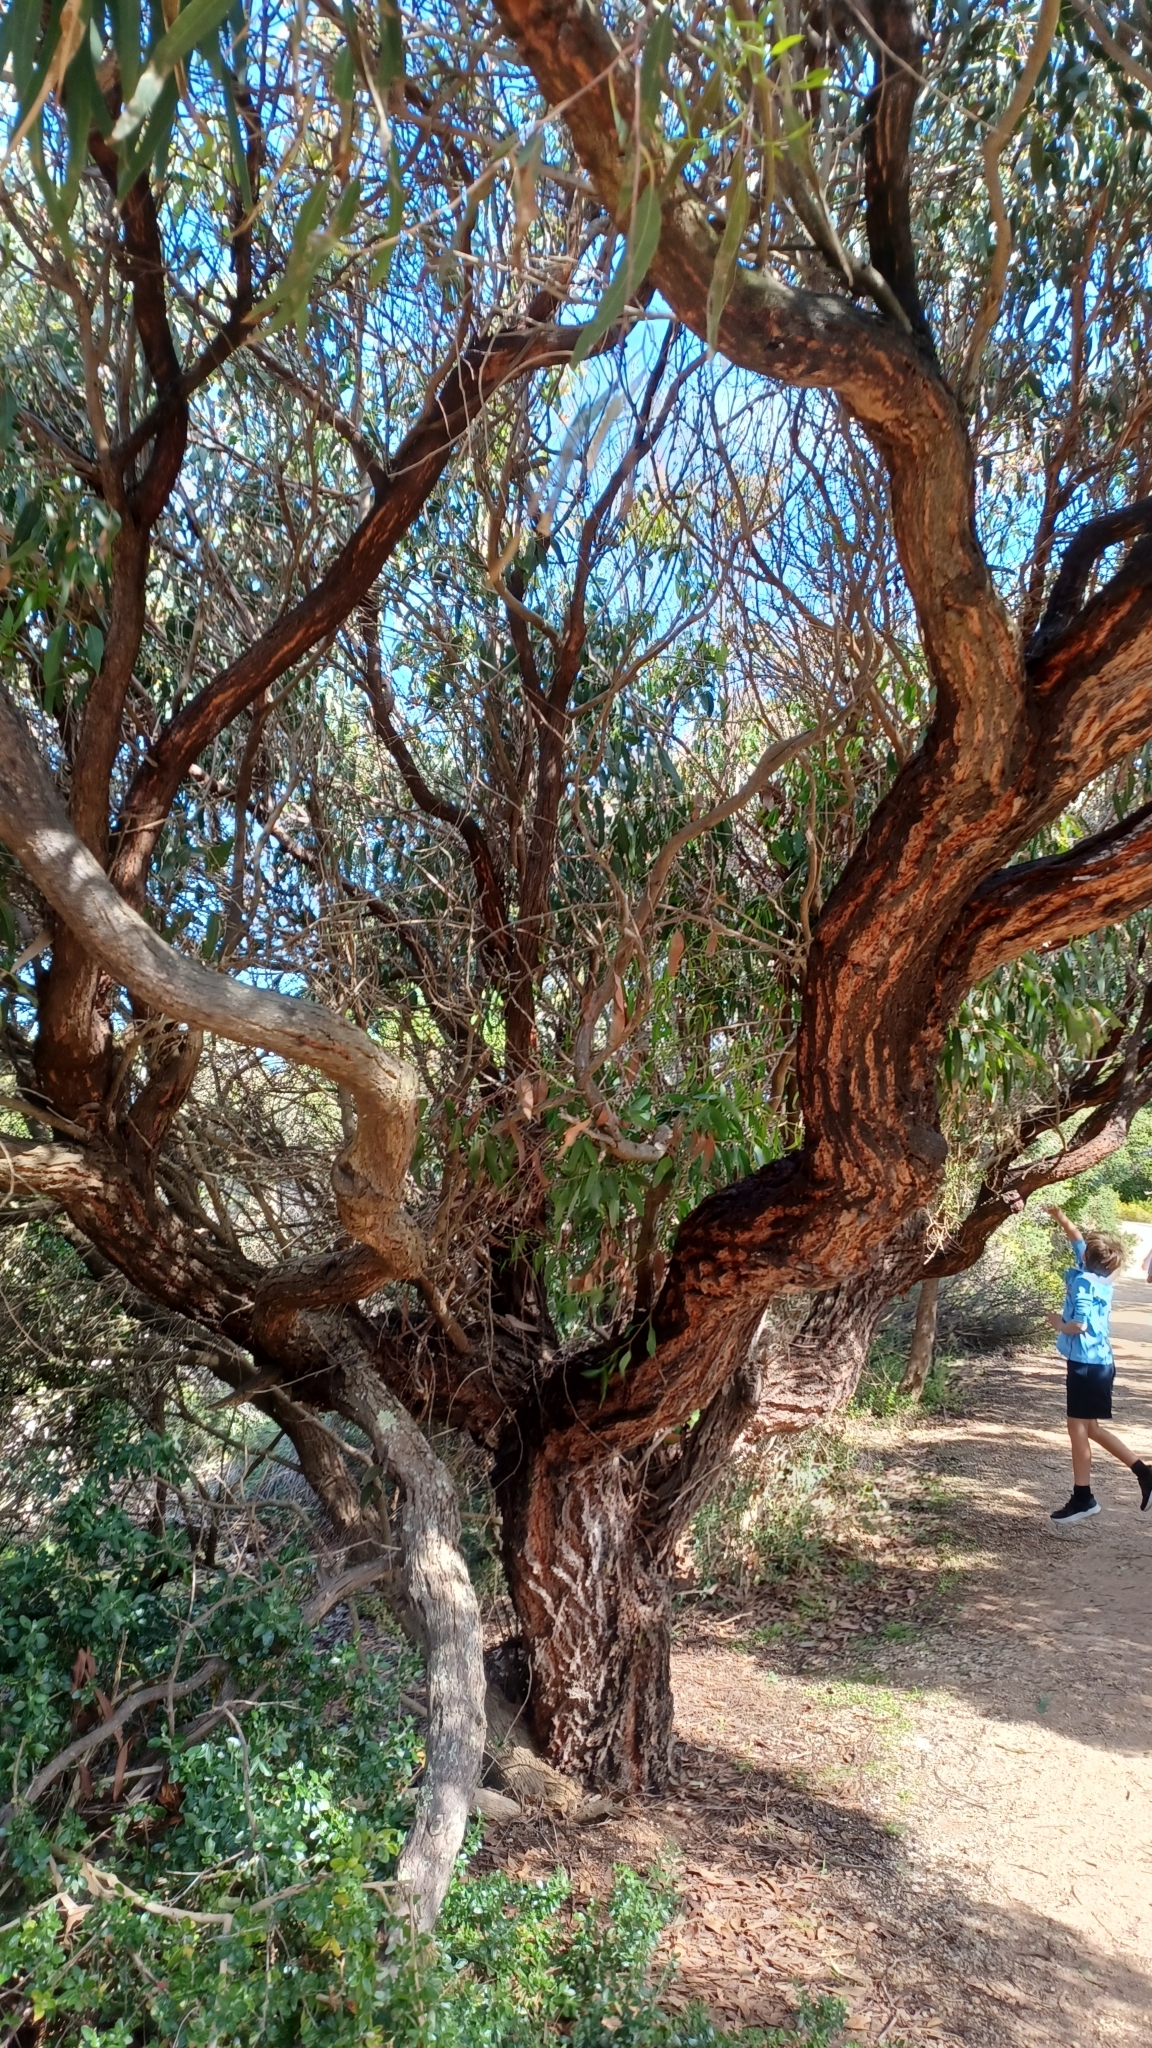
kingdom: Plantae
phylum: Tracheophyta
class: Magnoliopsida
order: Myrtales
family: Myrtaceae
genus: Eucalyptus
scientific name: Eucalyptus tricarpa
